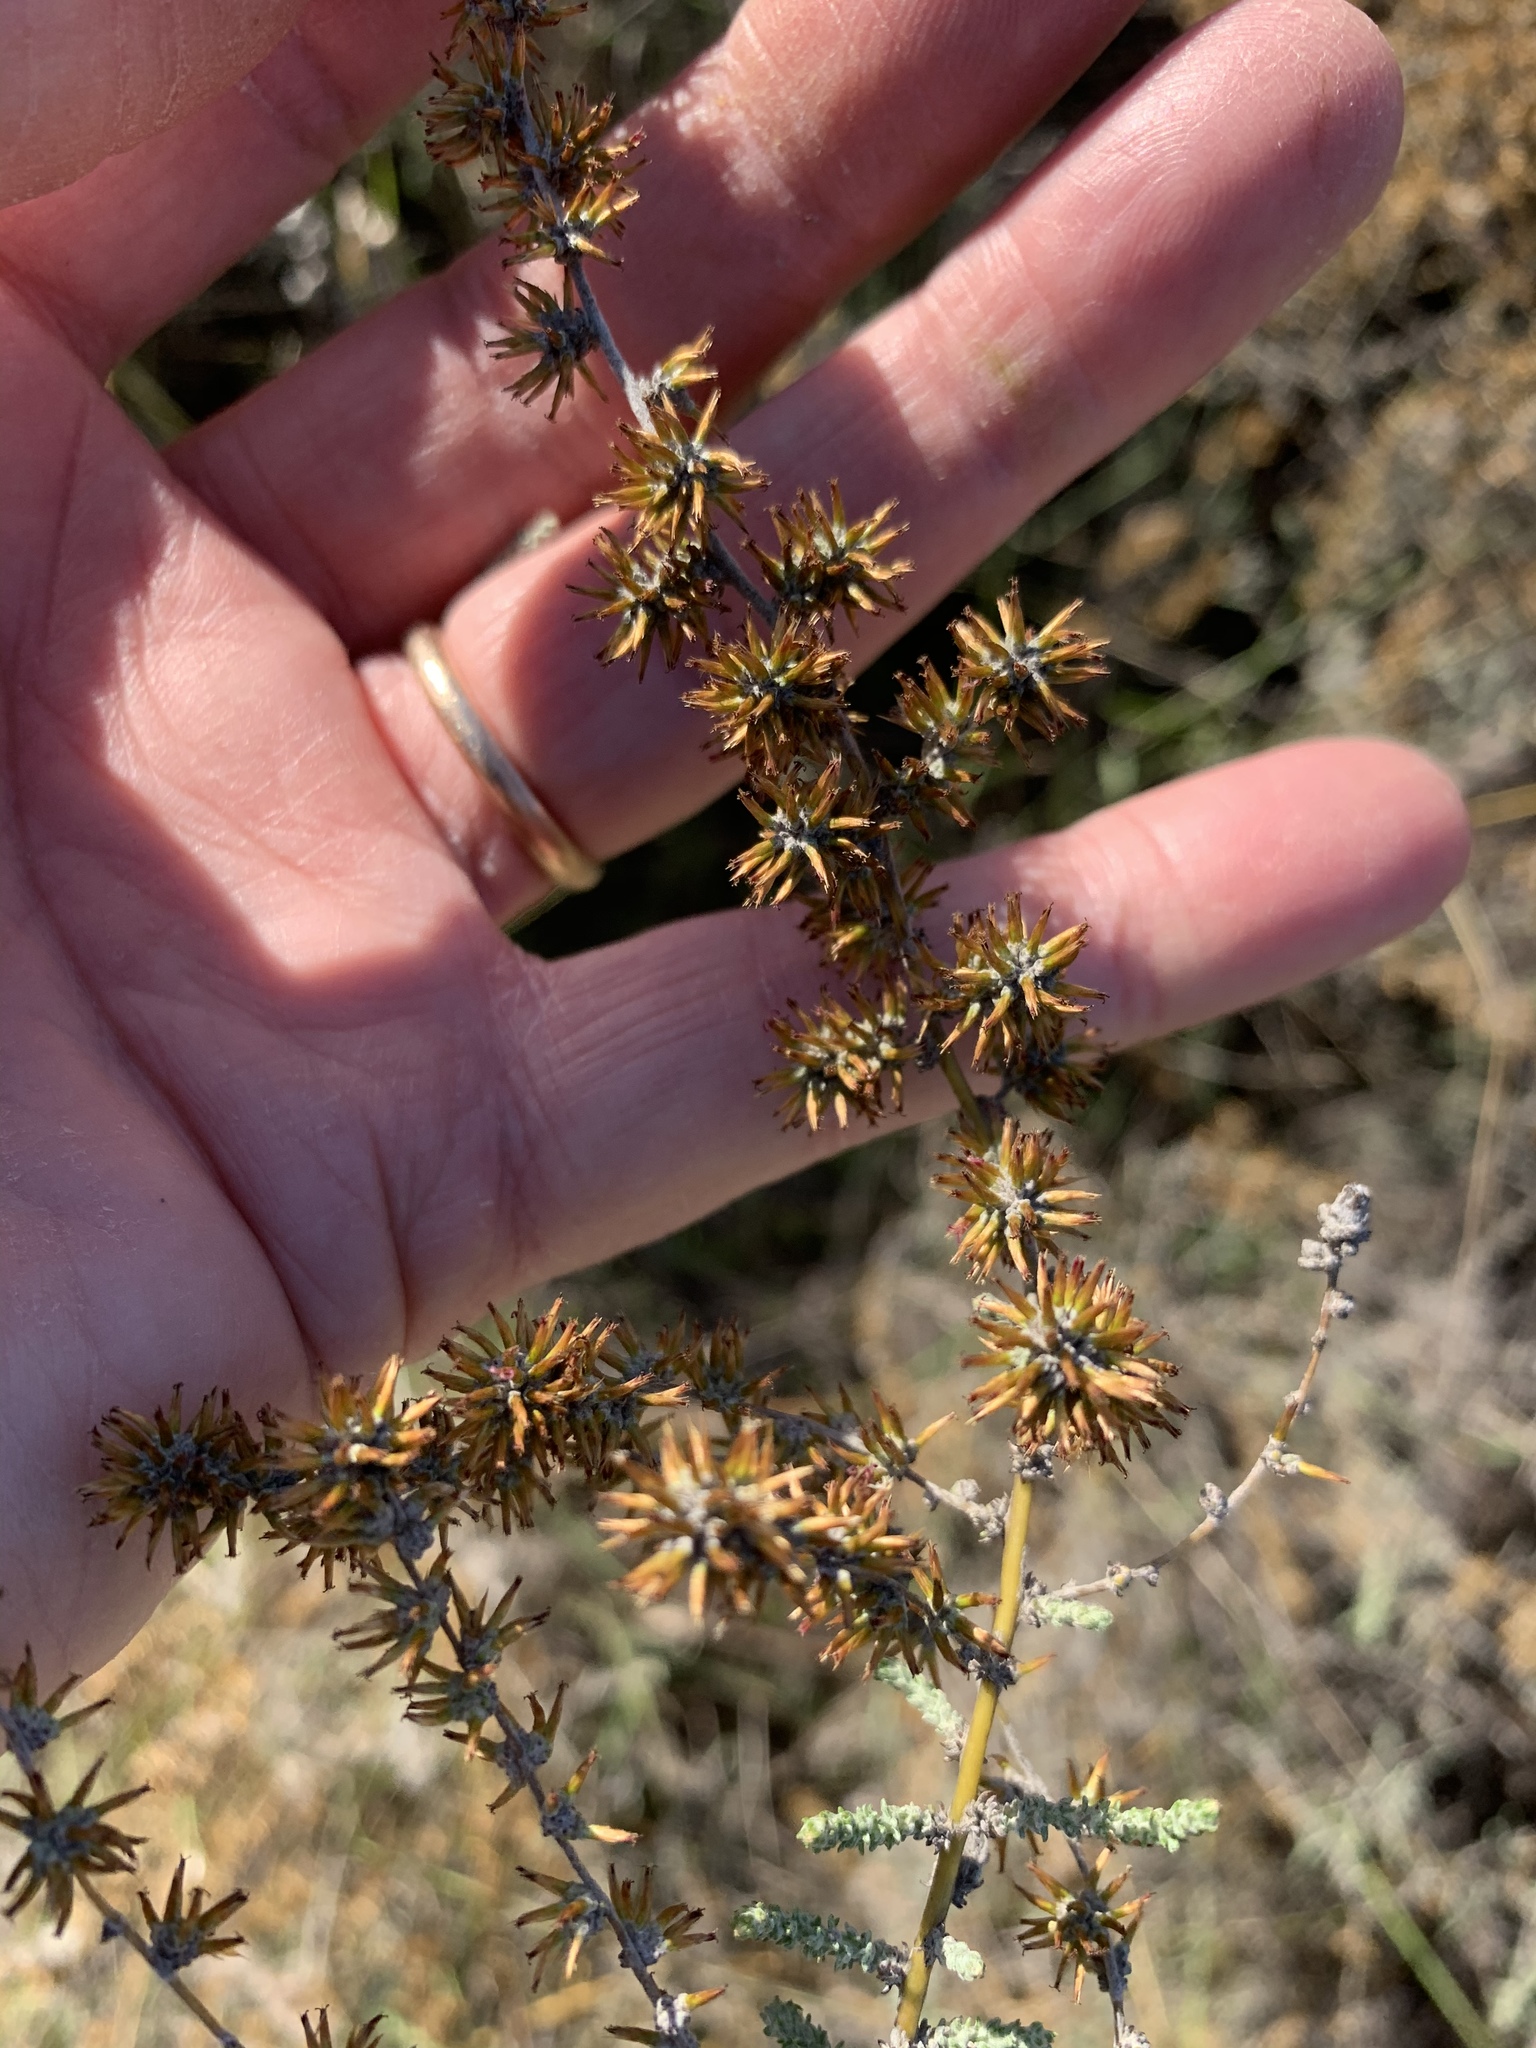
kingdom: Plantae
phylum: Tracheophyta
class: Magnoliopsida
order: Asterales
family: Asteraceae
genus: Seriphium
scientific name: Seriphium plumosum
